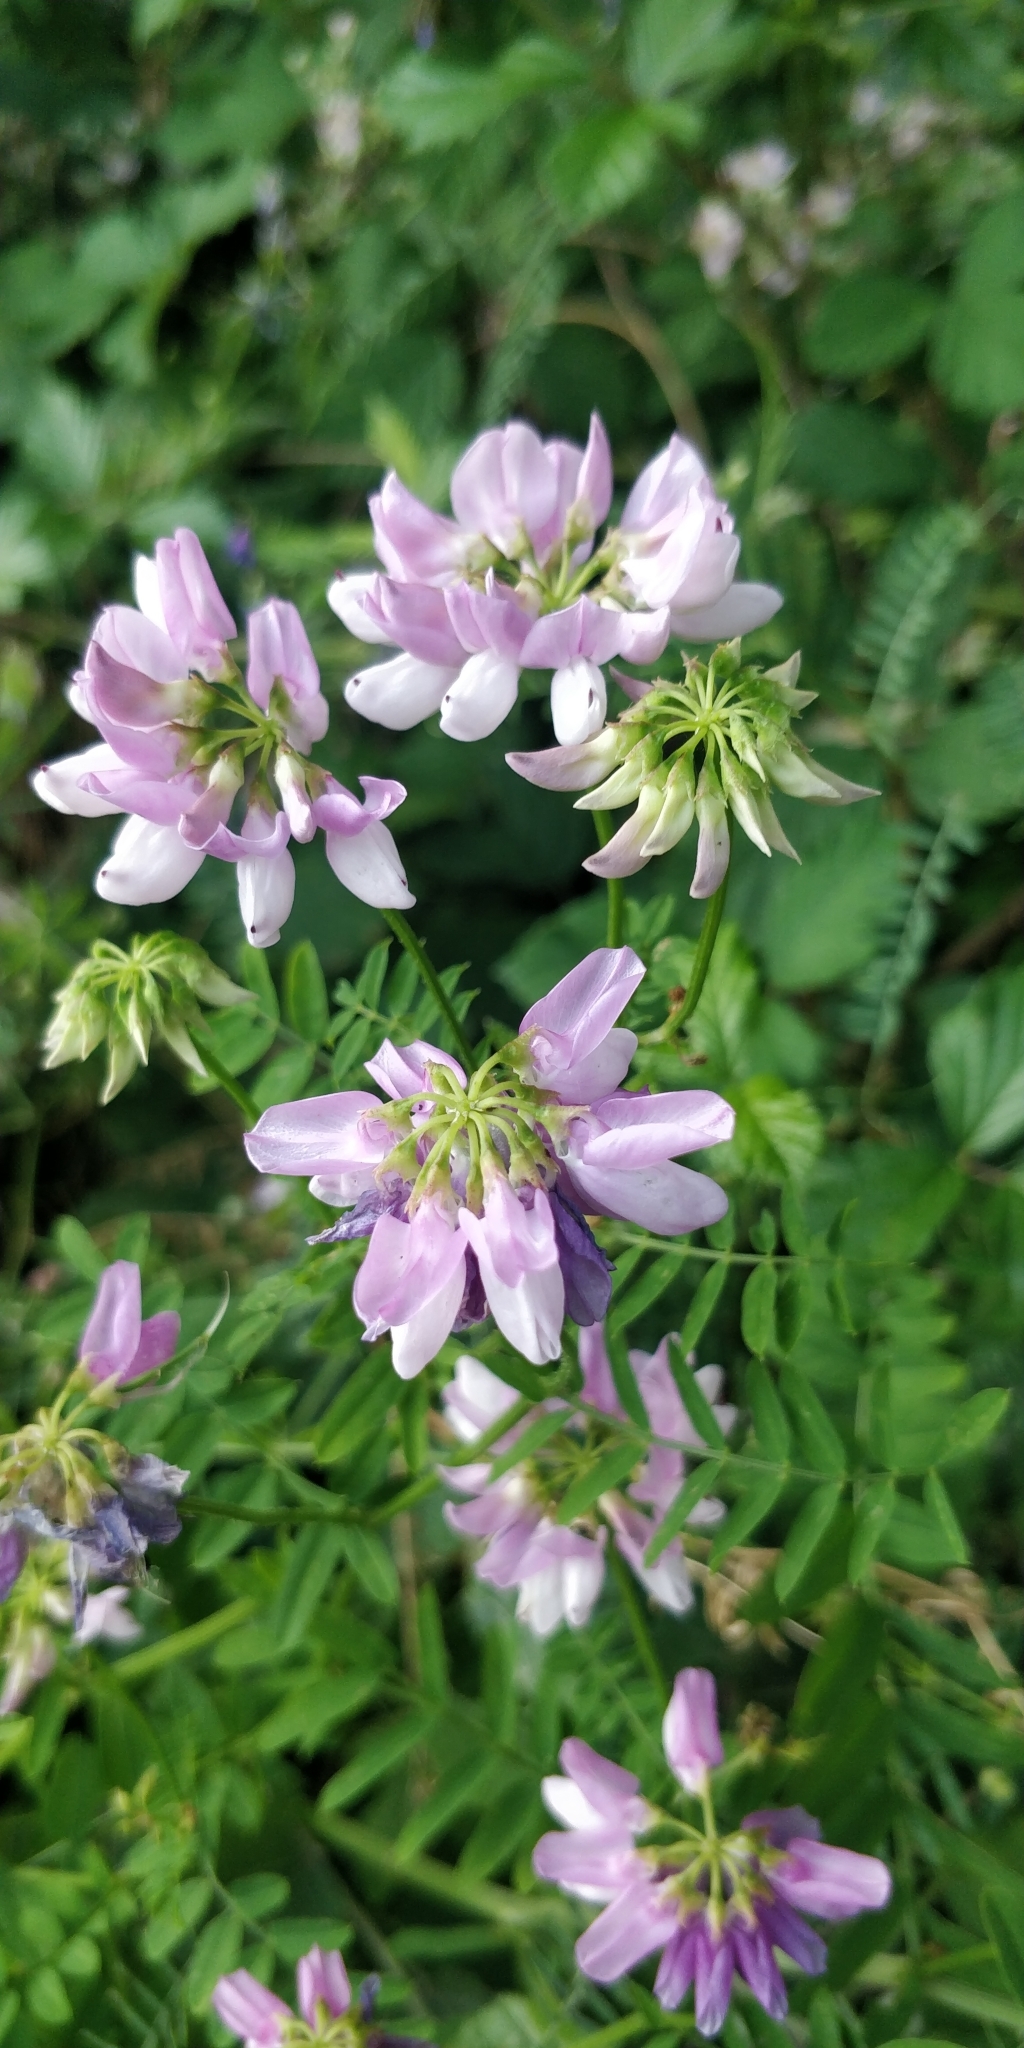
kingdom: Plantae
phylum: Tracheophyta
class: Magnoliopsida
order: Fabales
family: Fabaceae
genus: Coronilla
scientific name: Coronilla varia
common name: Crownvetch
